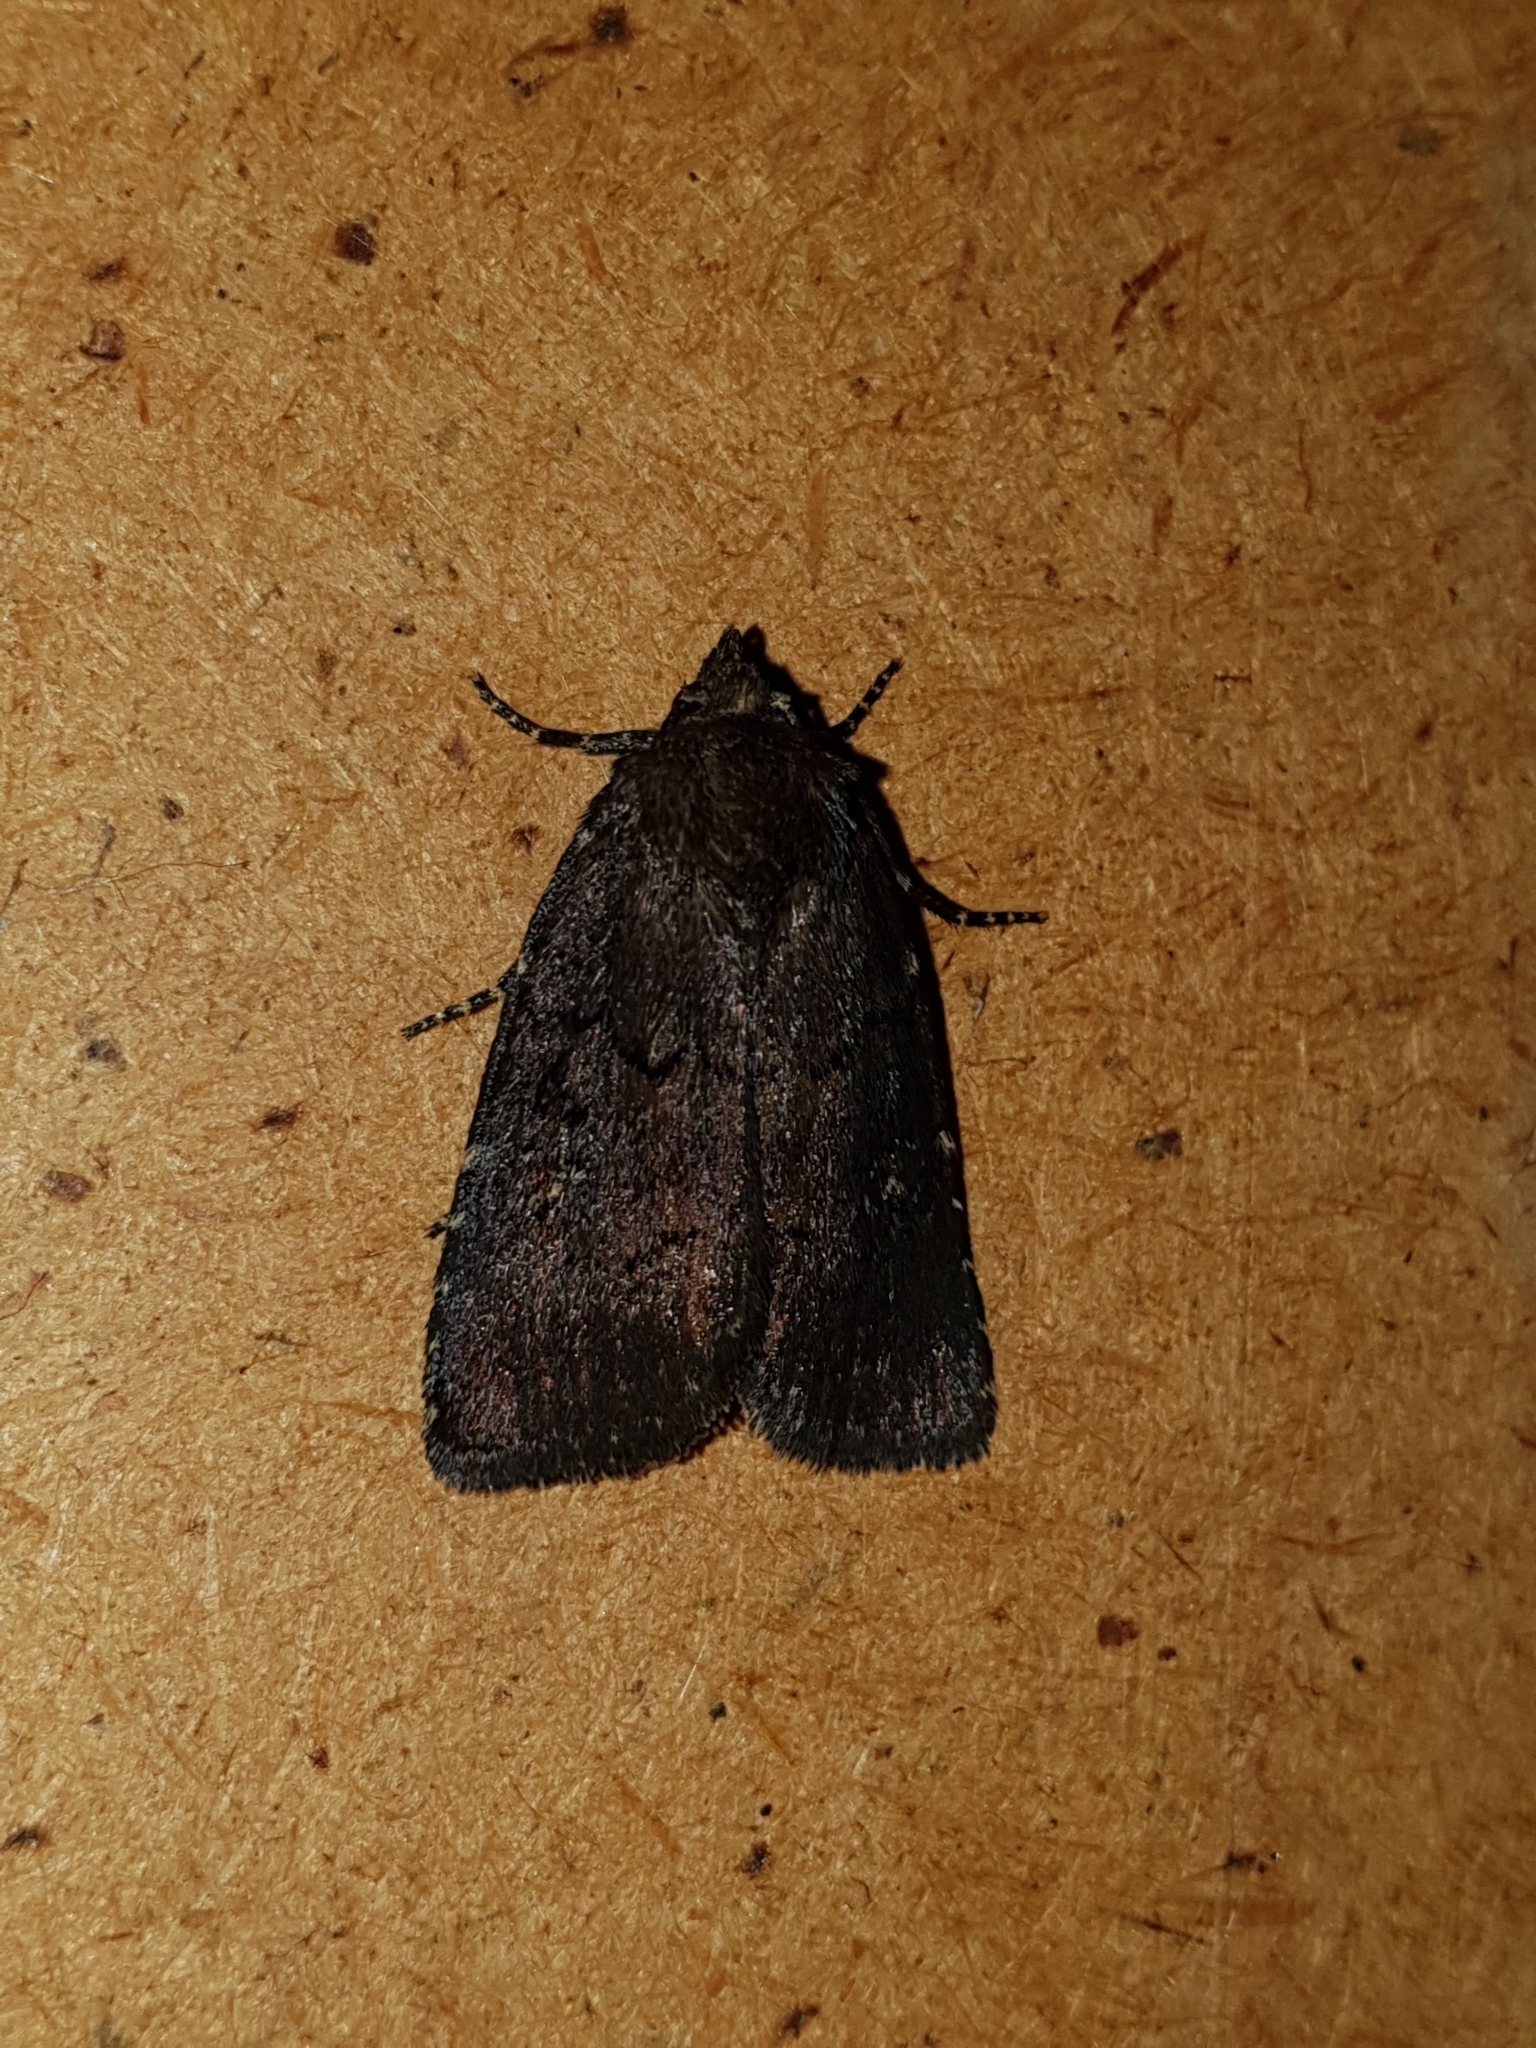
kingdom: Animalia
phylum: Arthropoda
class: Insecta
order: Lepidoptera
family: Noctuidae
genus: Rusina
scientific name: Rusina
